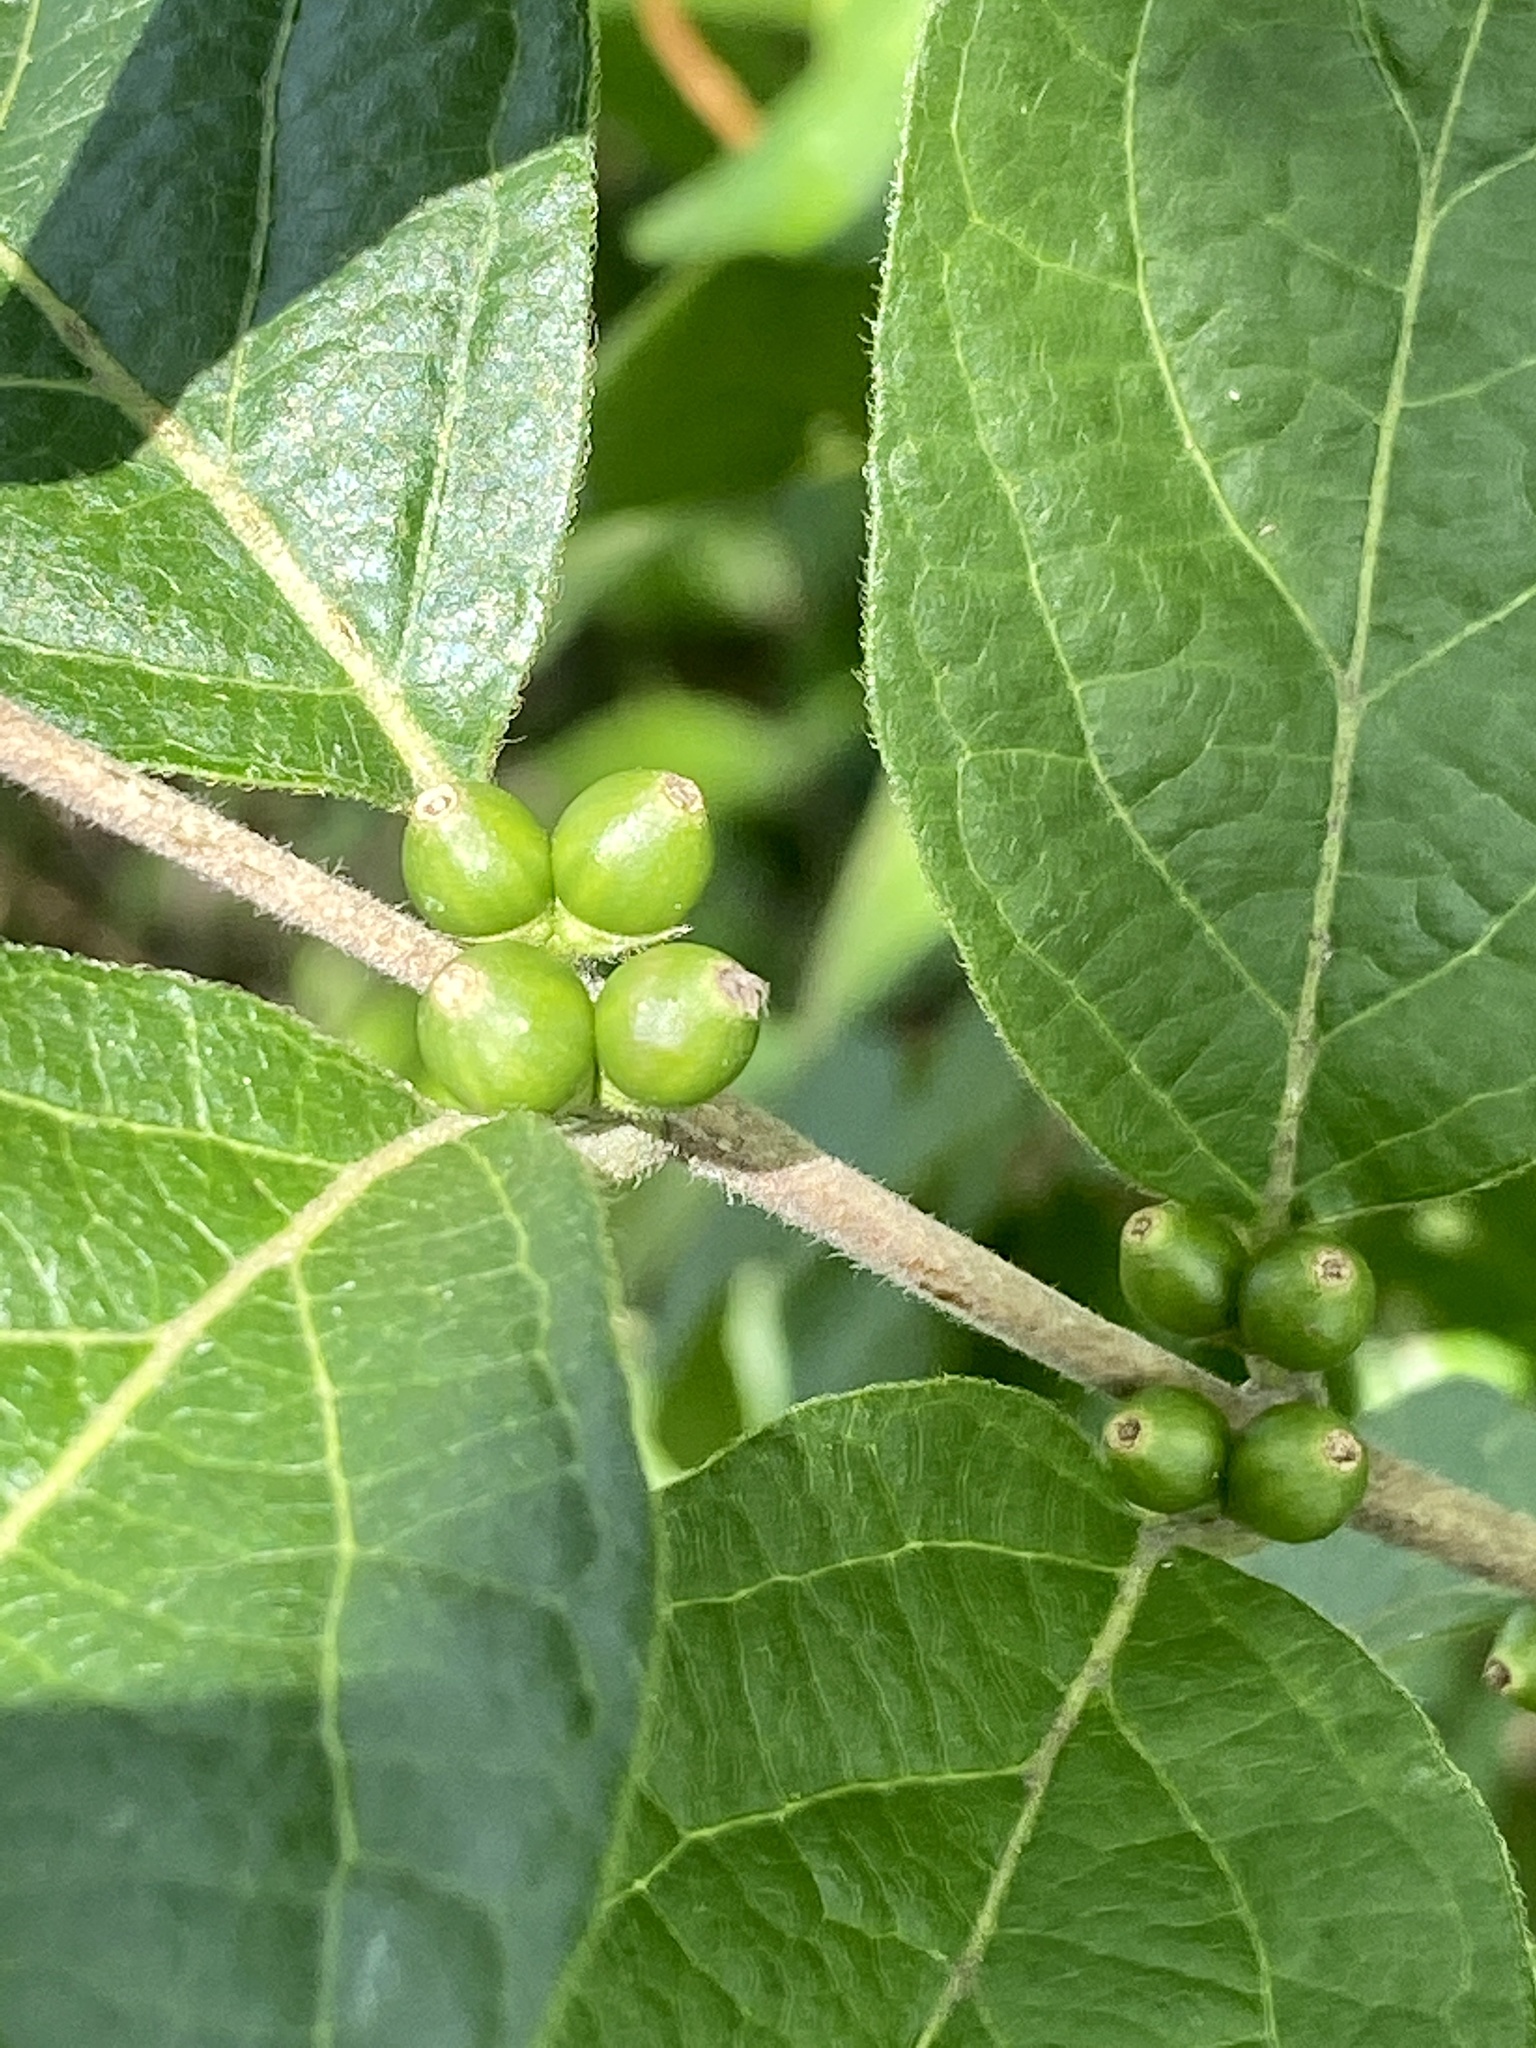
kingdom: Plantae
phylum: Tracheophyta
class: Magnoliopsida
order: Dipsacales
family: Caprifoliaceae
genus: Lonicera
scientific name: Lonicera maackii
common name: Amur honeysuckle
